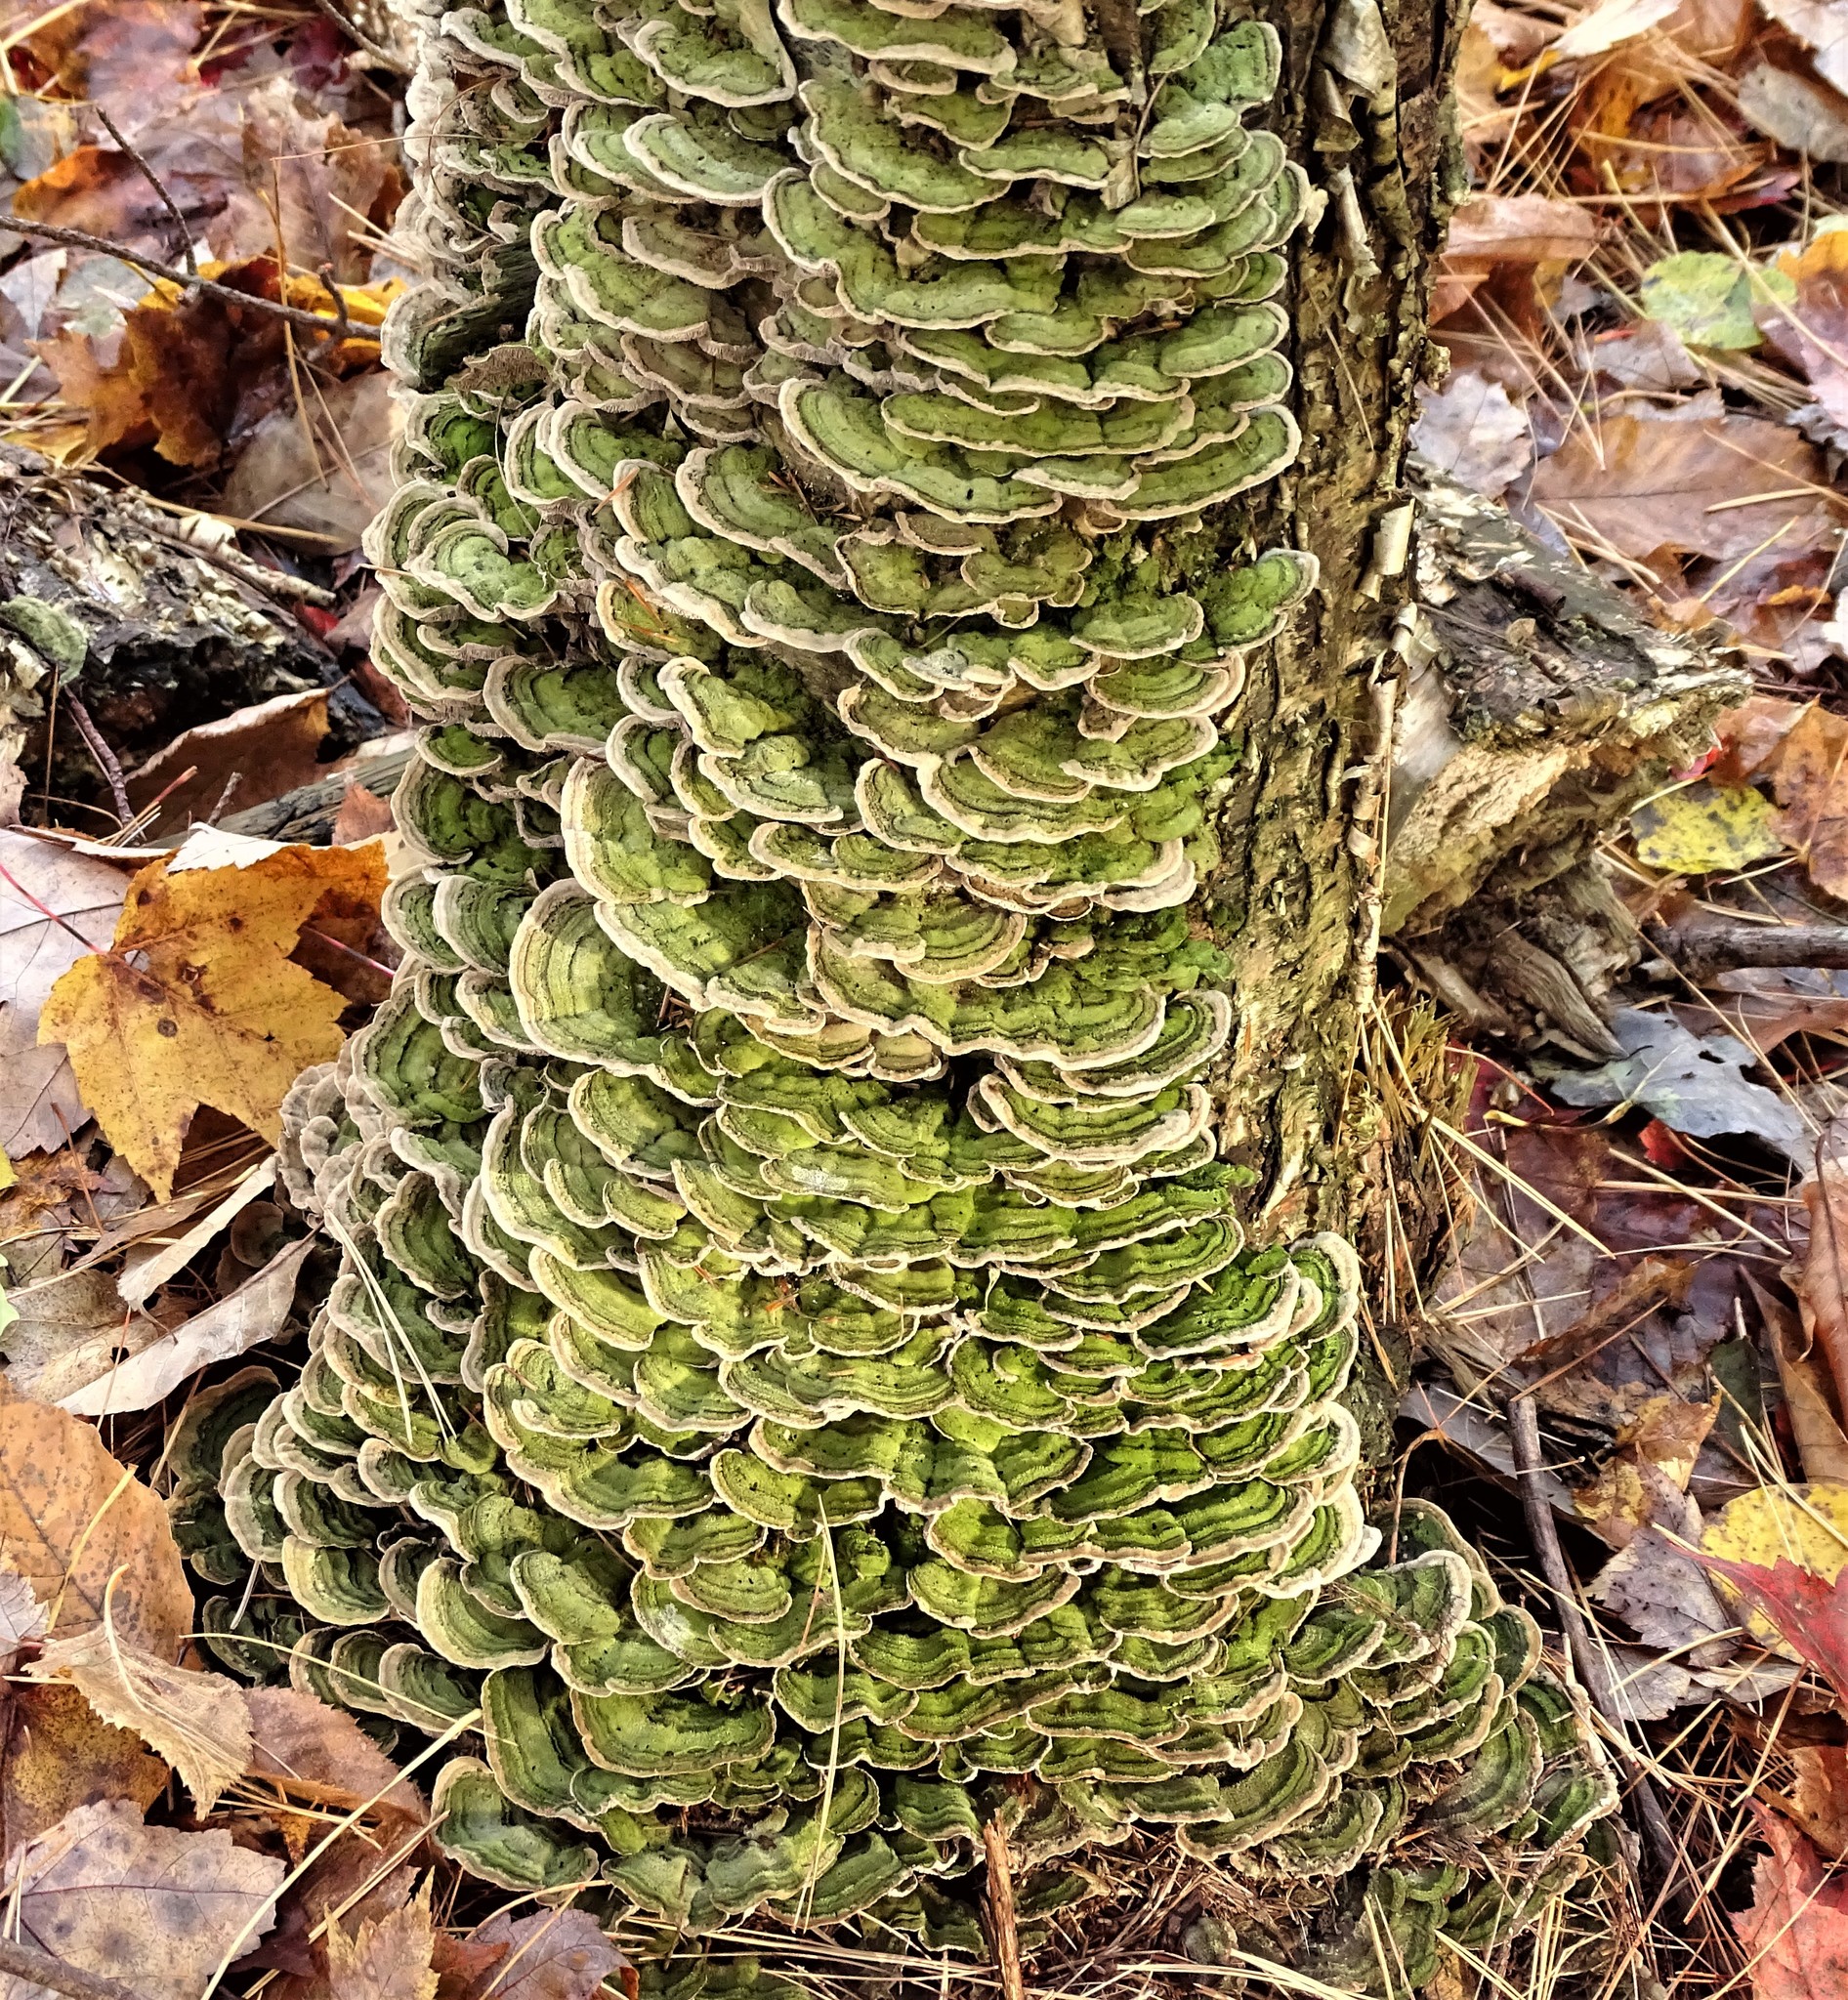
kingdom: Fungi
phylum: Basidiomycota
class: Agaricomycetes
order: Polyporales
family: Cerrenaceae
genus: Cerrena
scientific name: Cerrena unicolor
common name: Mossy maze polypore
